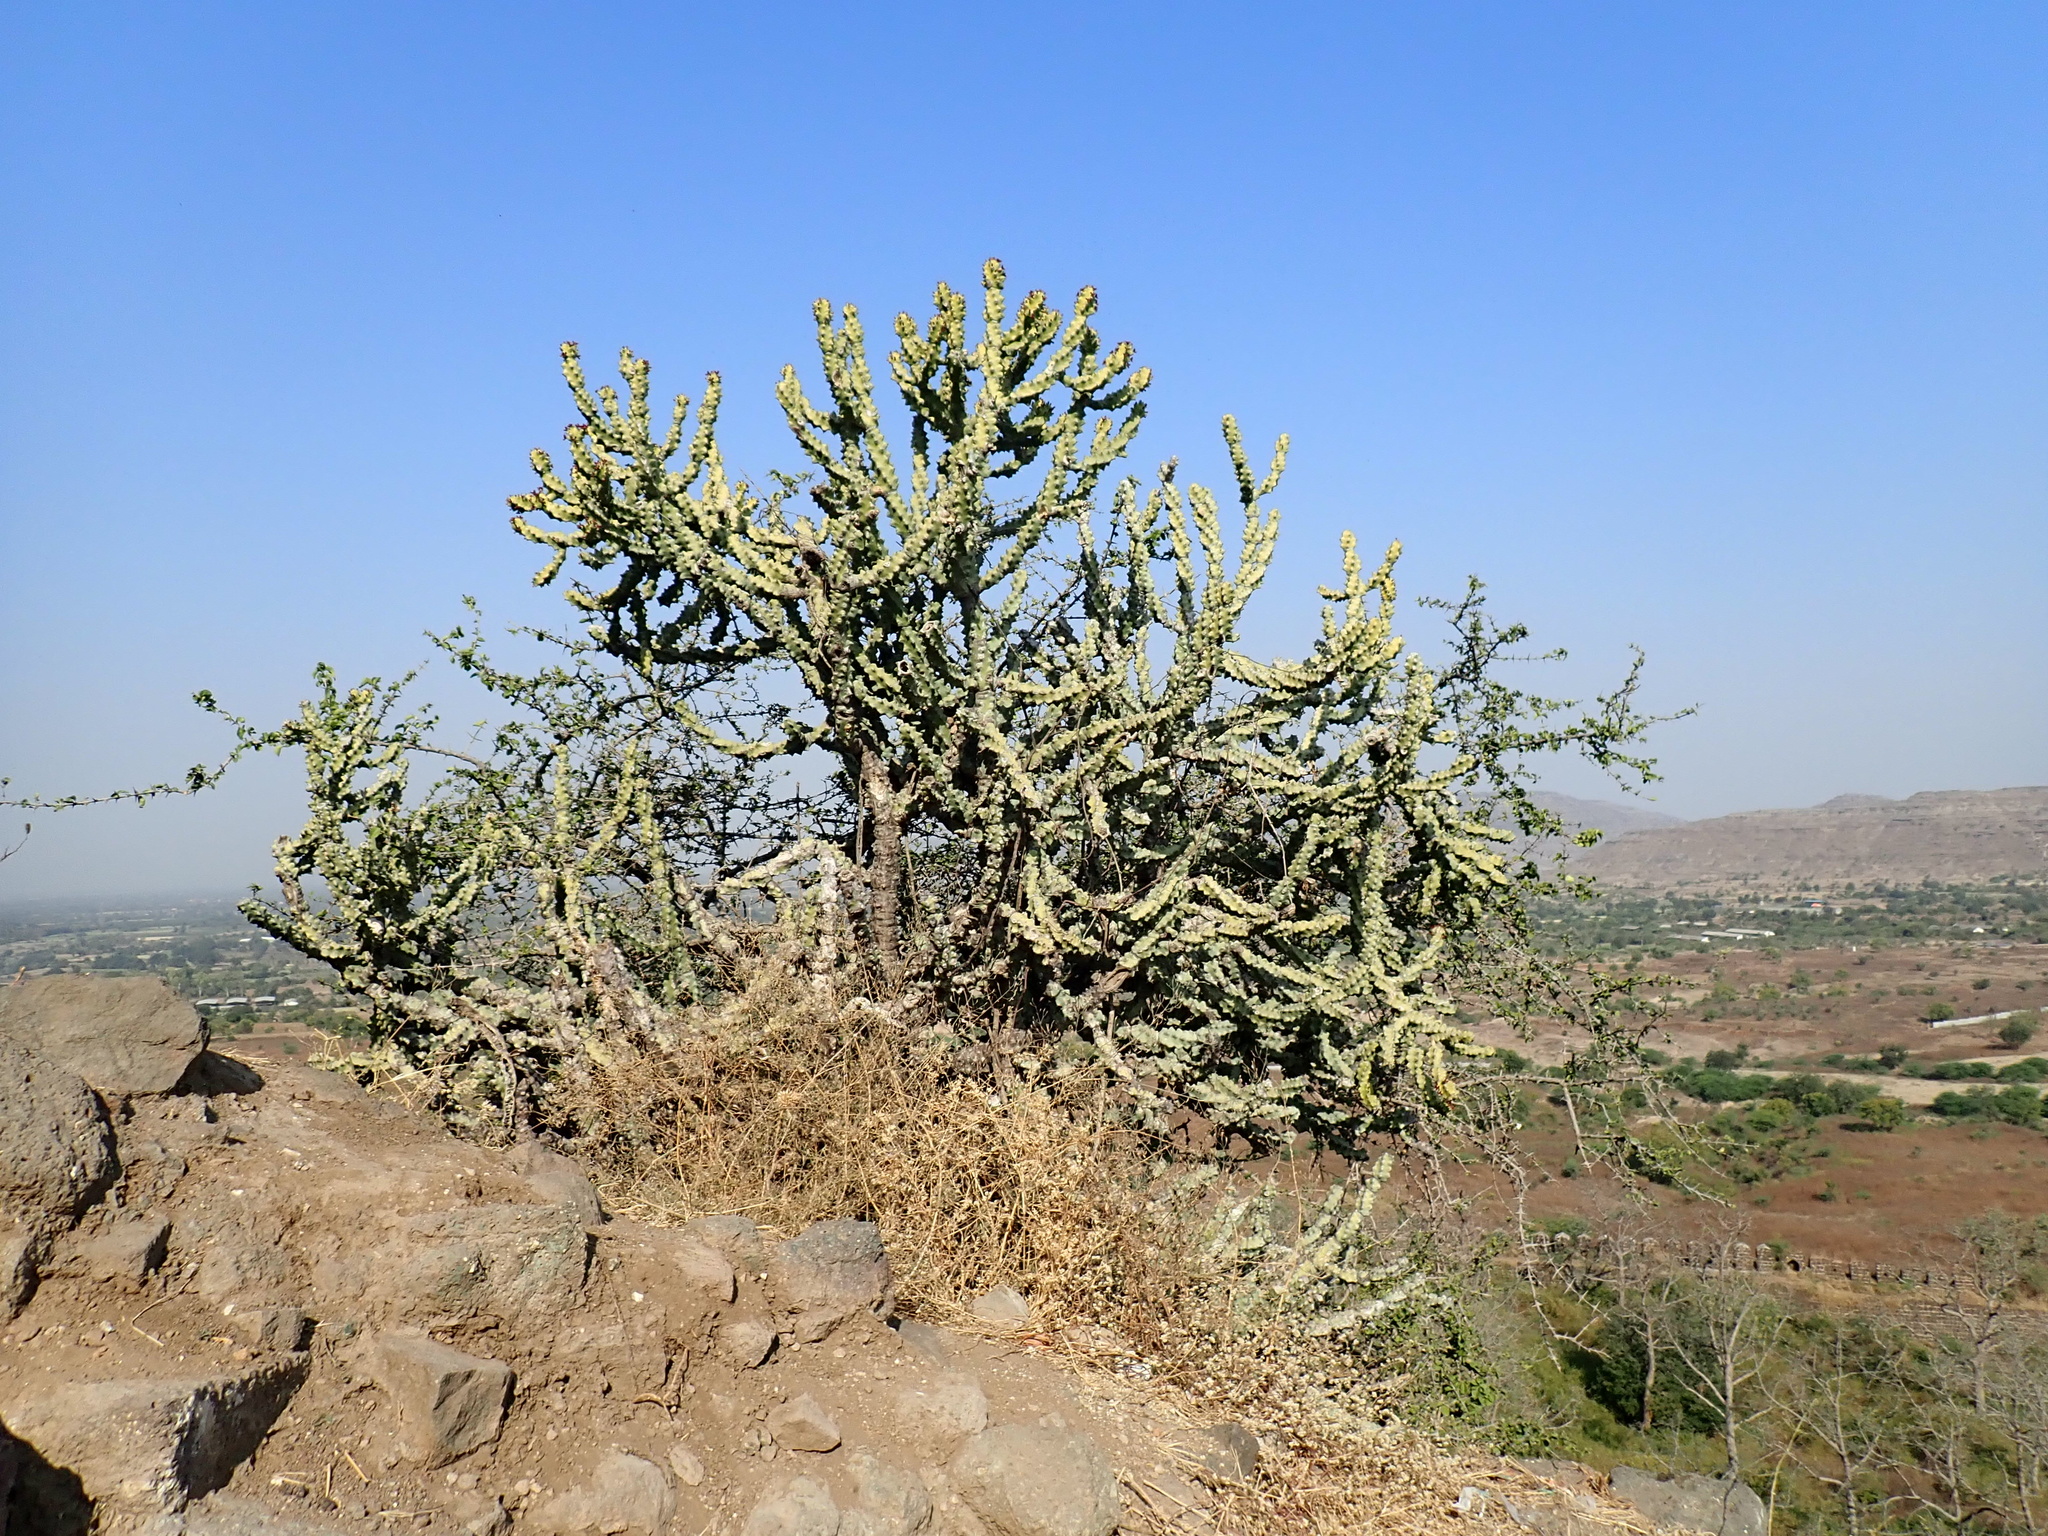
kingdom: Plantae
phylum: Tracheophyta
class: Magnoliopsida
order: Malpighiales
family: Euphorbiaceae
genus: Euphorbia
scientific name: Euphorbia neriifolia
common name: Hedge euphorbia
